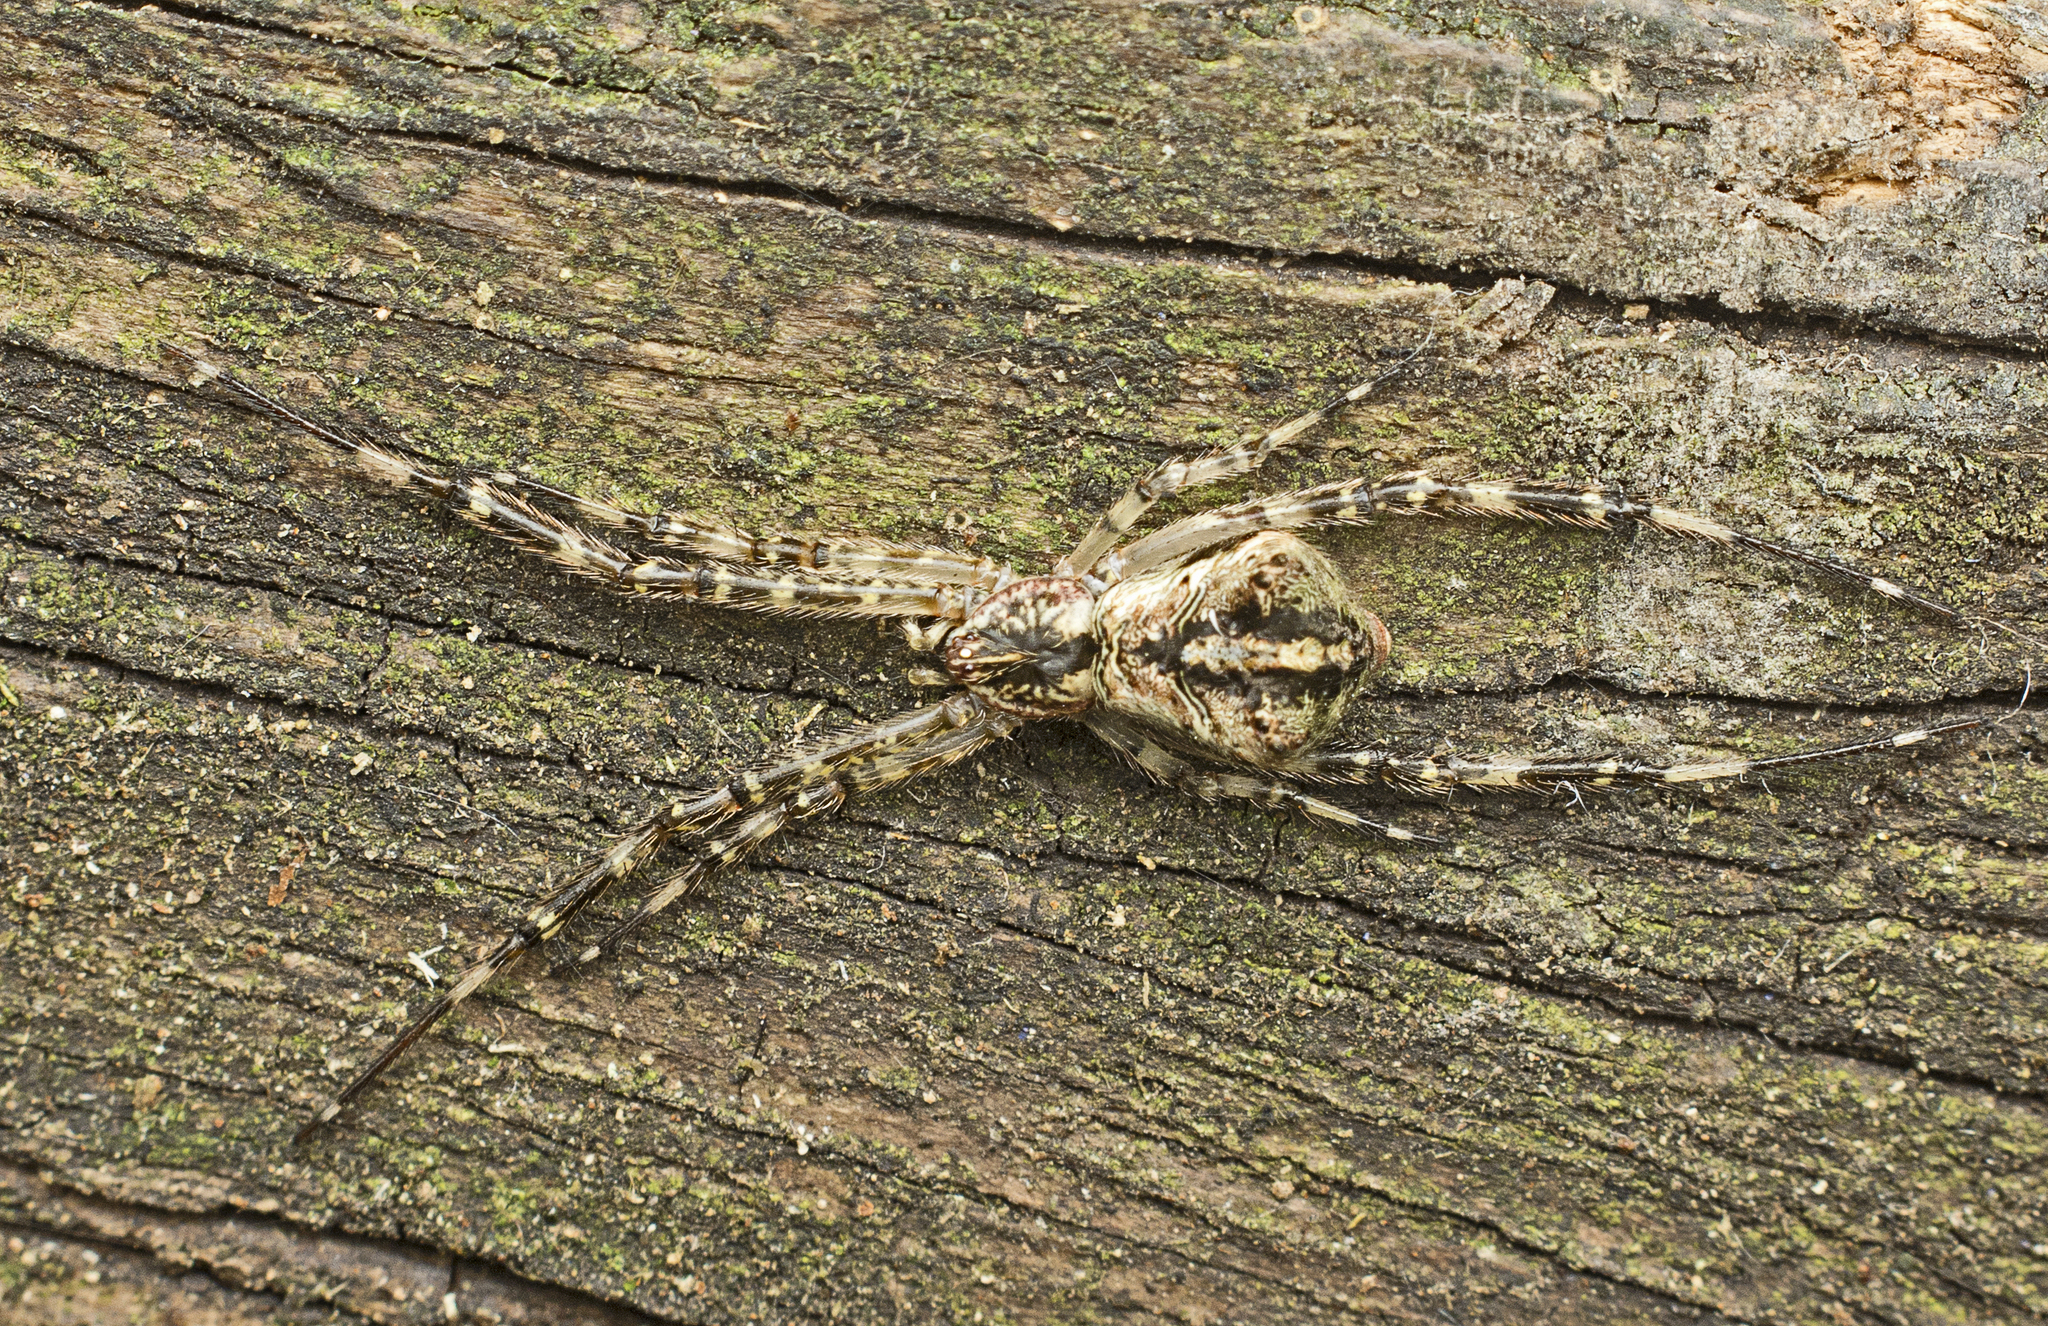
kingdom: Animalia
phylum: Arthropoda
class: Arachnida
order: Araneae
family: Theridiidae
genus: Janula
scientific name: Janula bicornis
